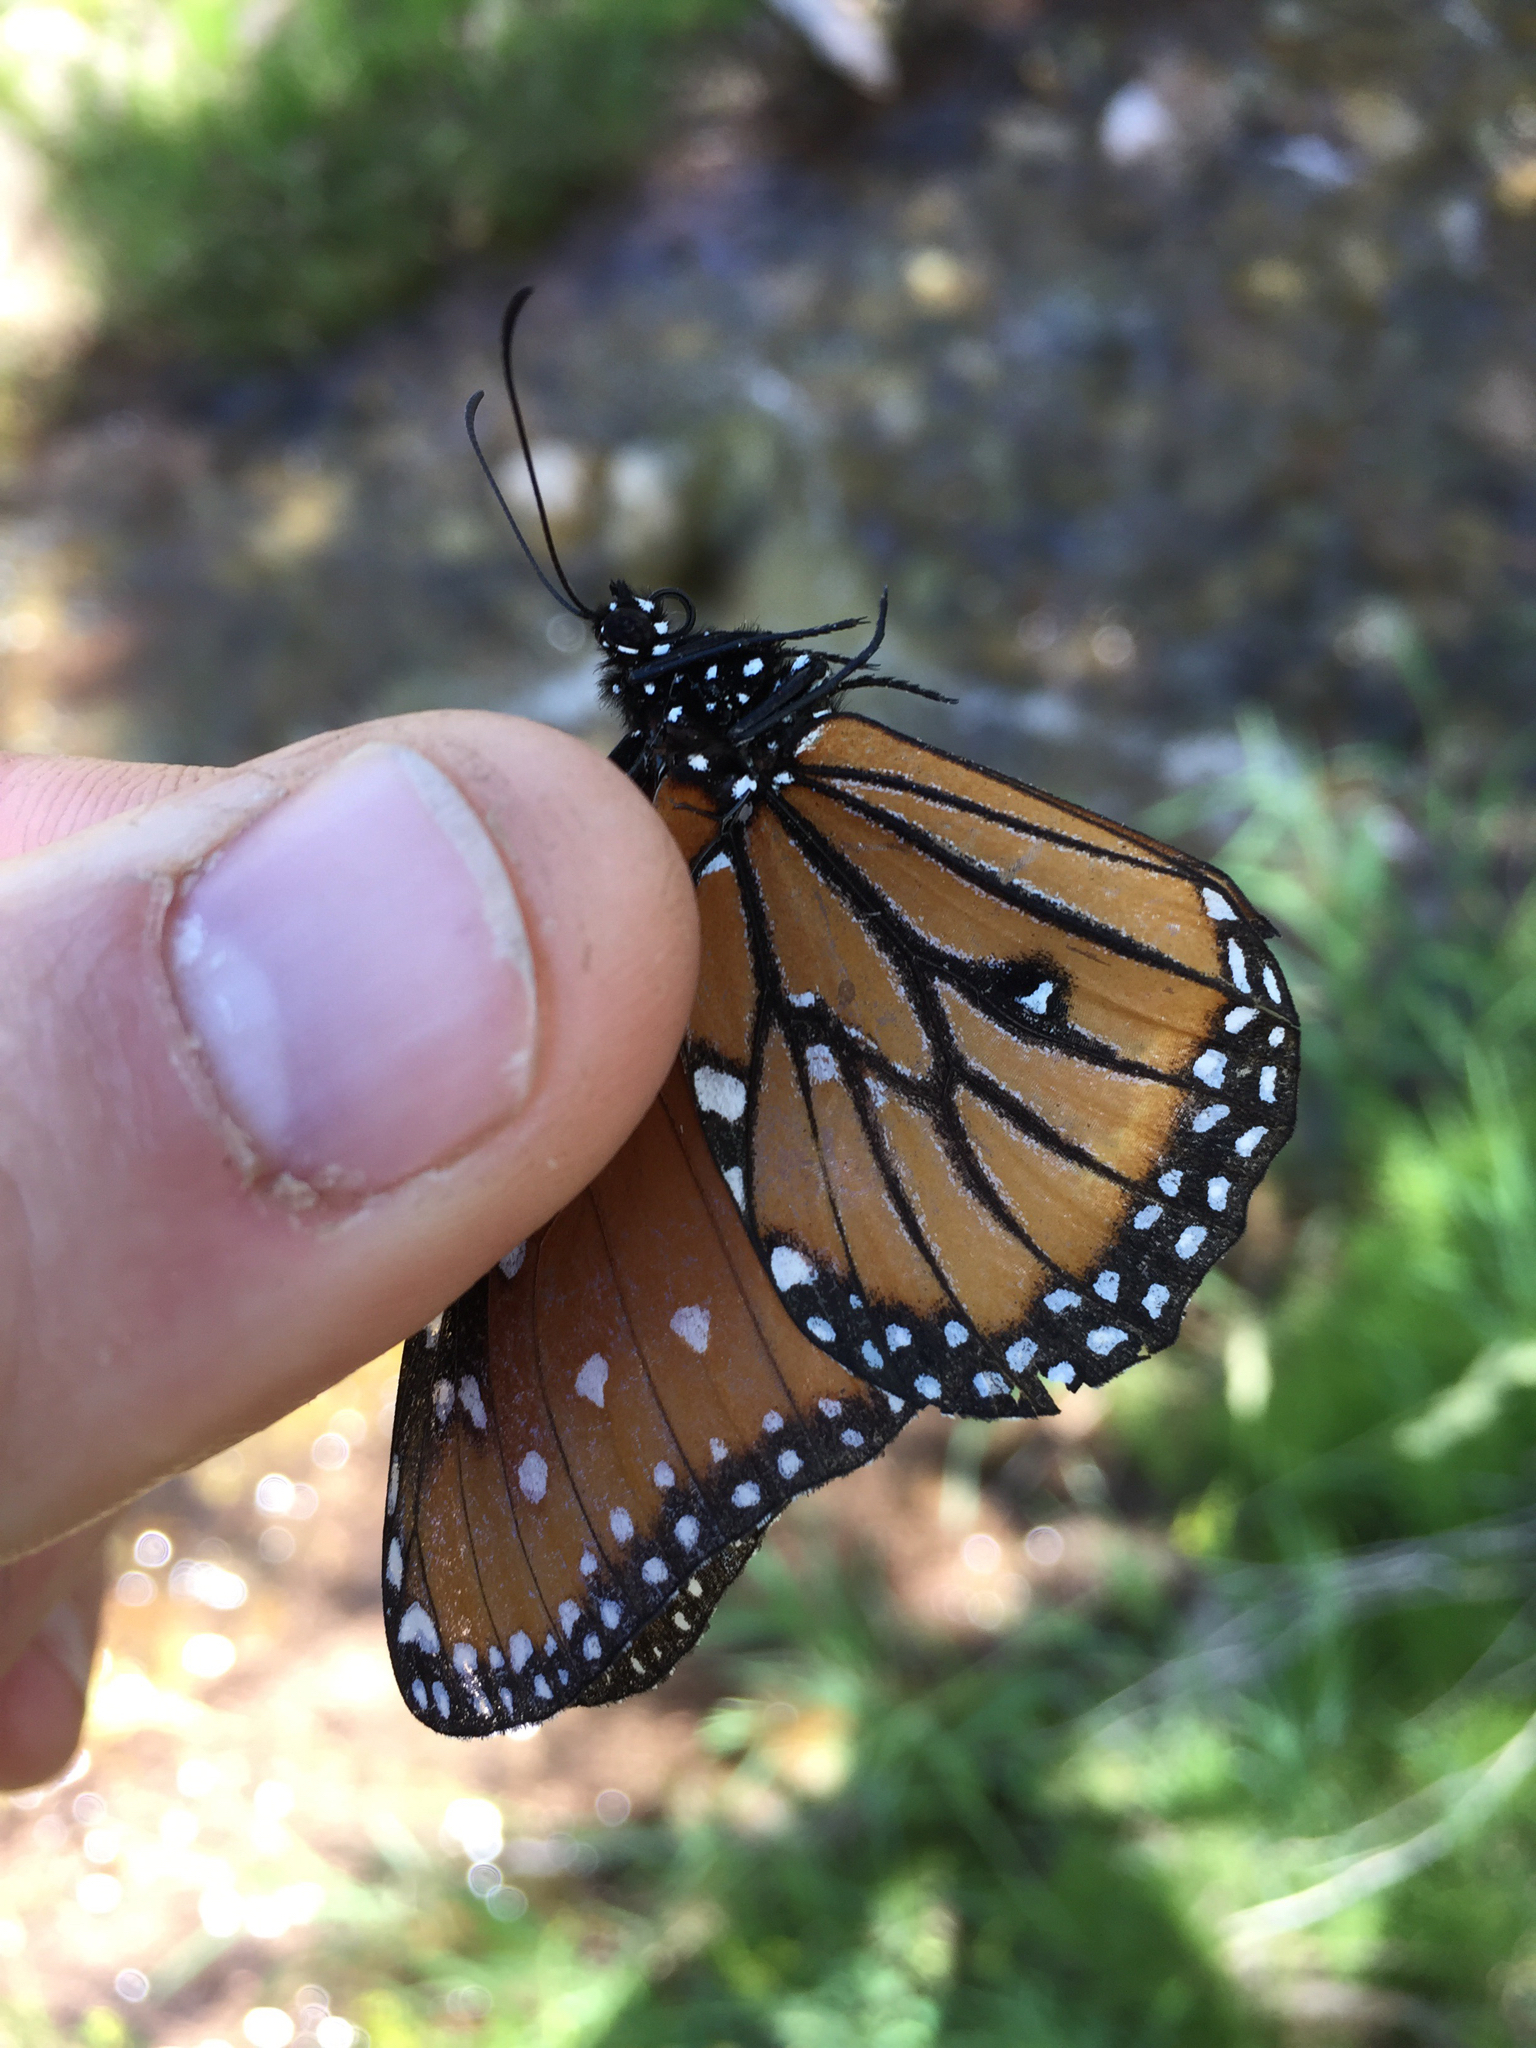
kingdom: Animalia
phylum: Arthropoda
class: Insecta
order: Lepidoptera
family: Nymphalidae
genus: Danaus
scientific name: Danaus gilippus
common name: Queen
